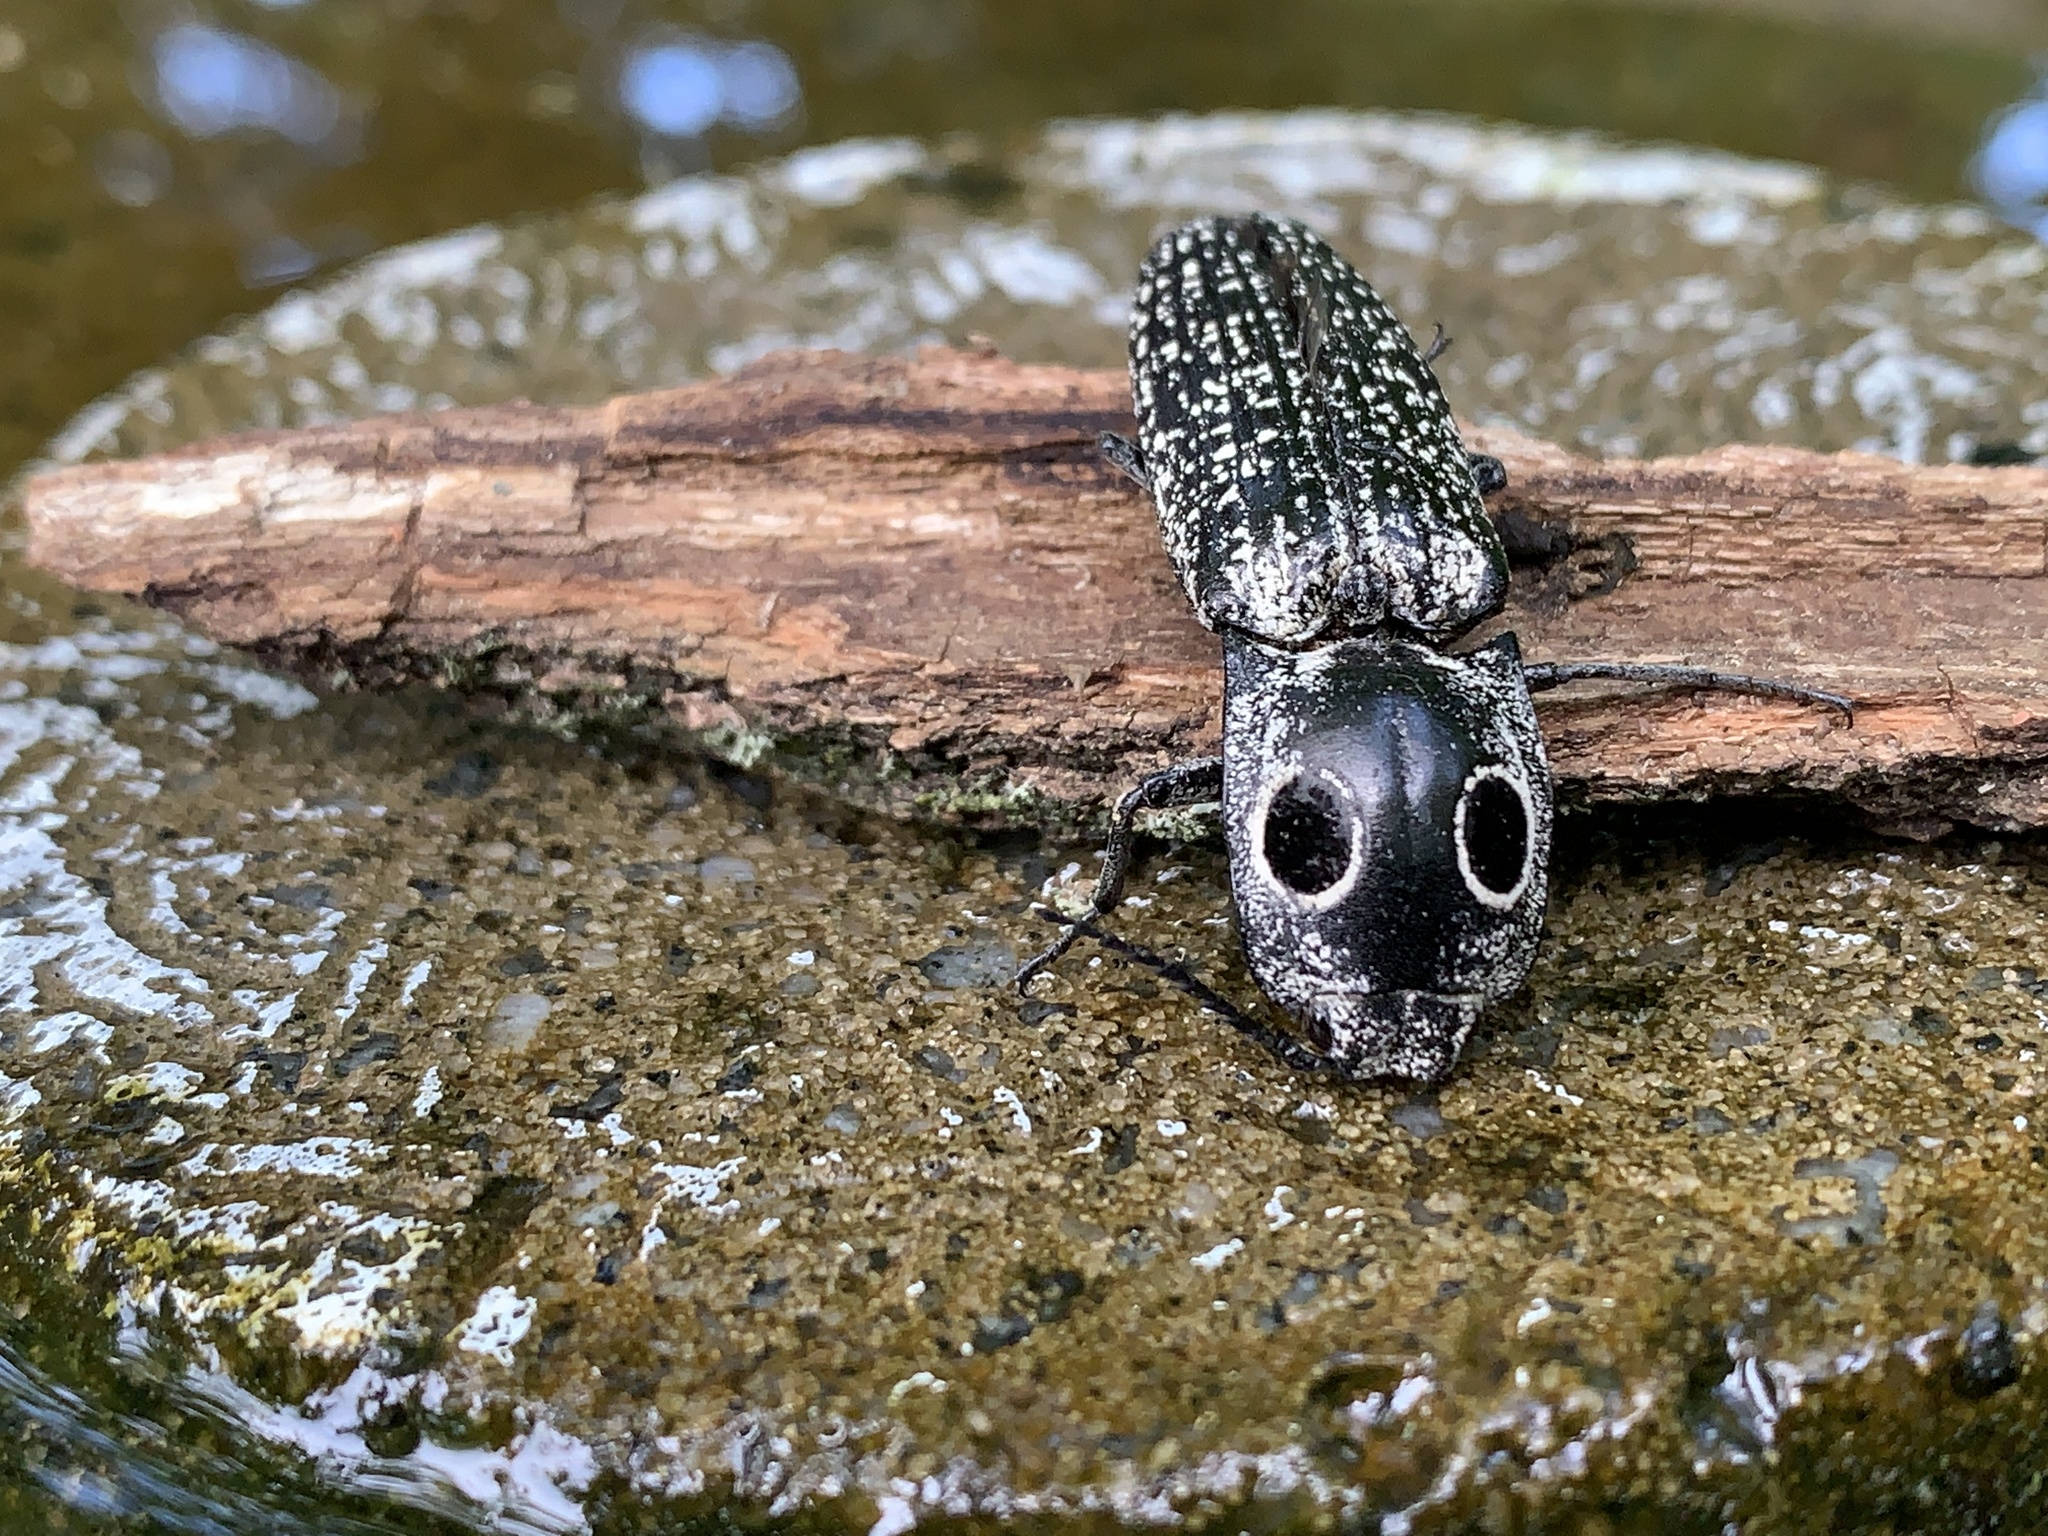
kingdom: Animalia
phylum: Arthropoda
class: Insecta
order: Coleoptera
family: Elateridae
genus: Alaus
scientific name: Alaus oculatus
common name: Eastern eyed click beetle
